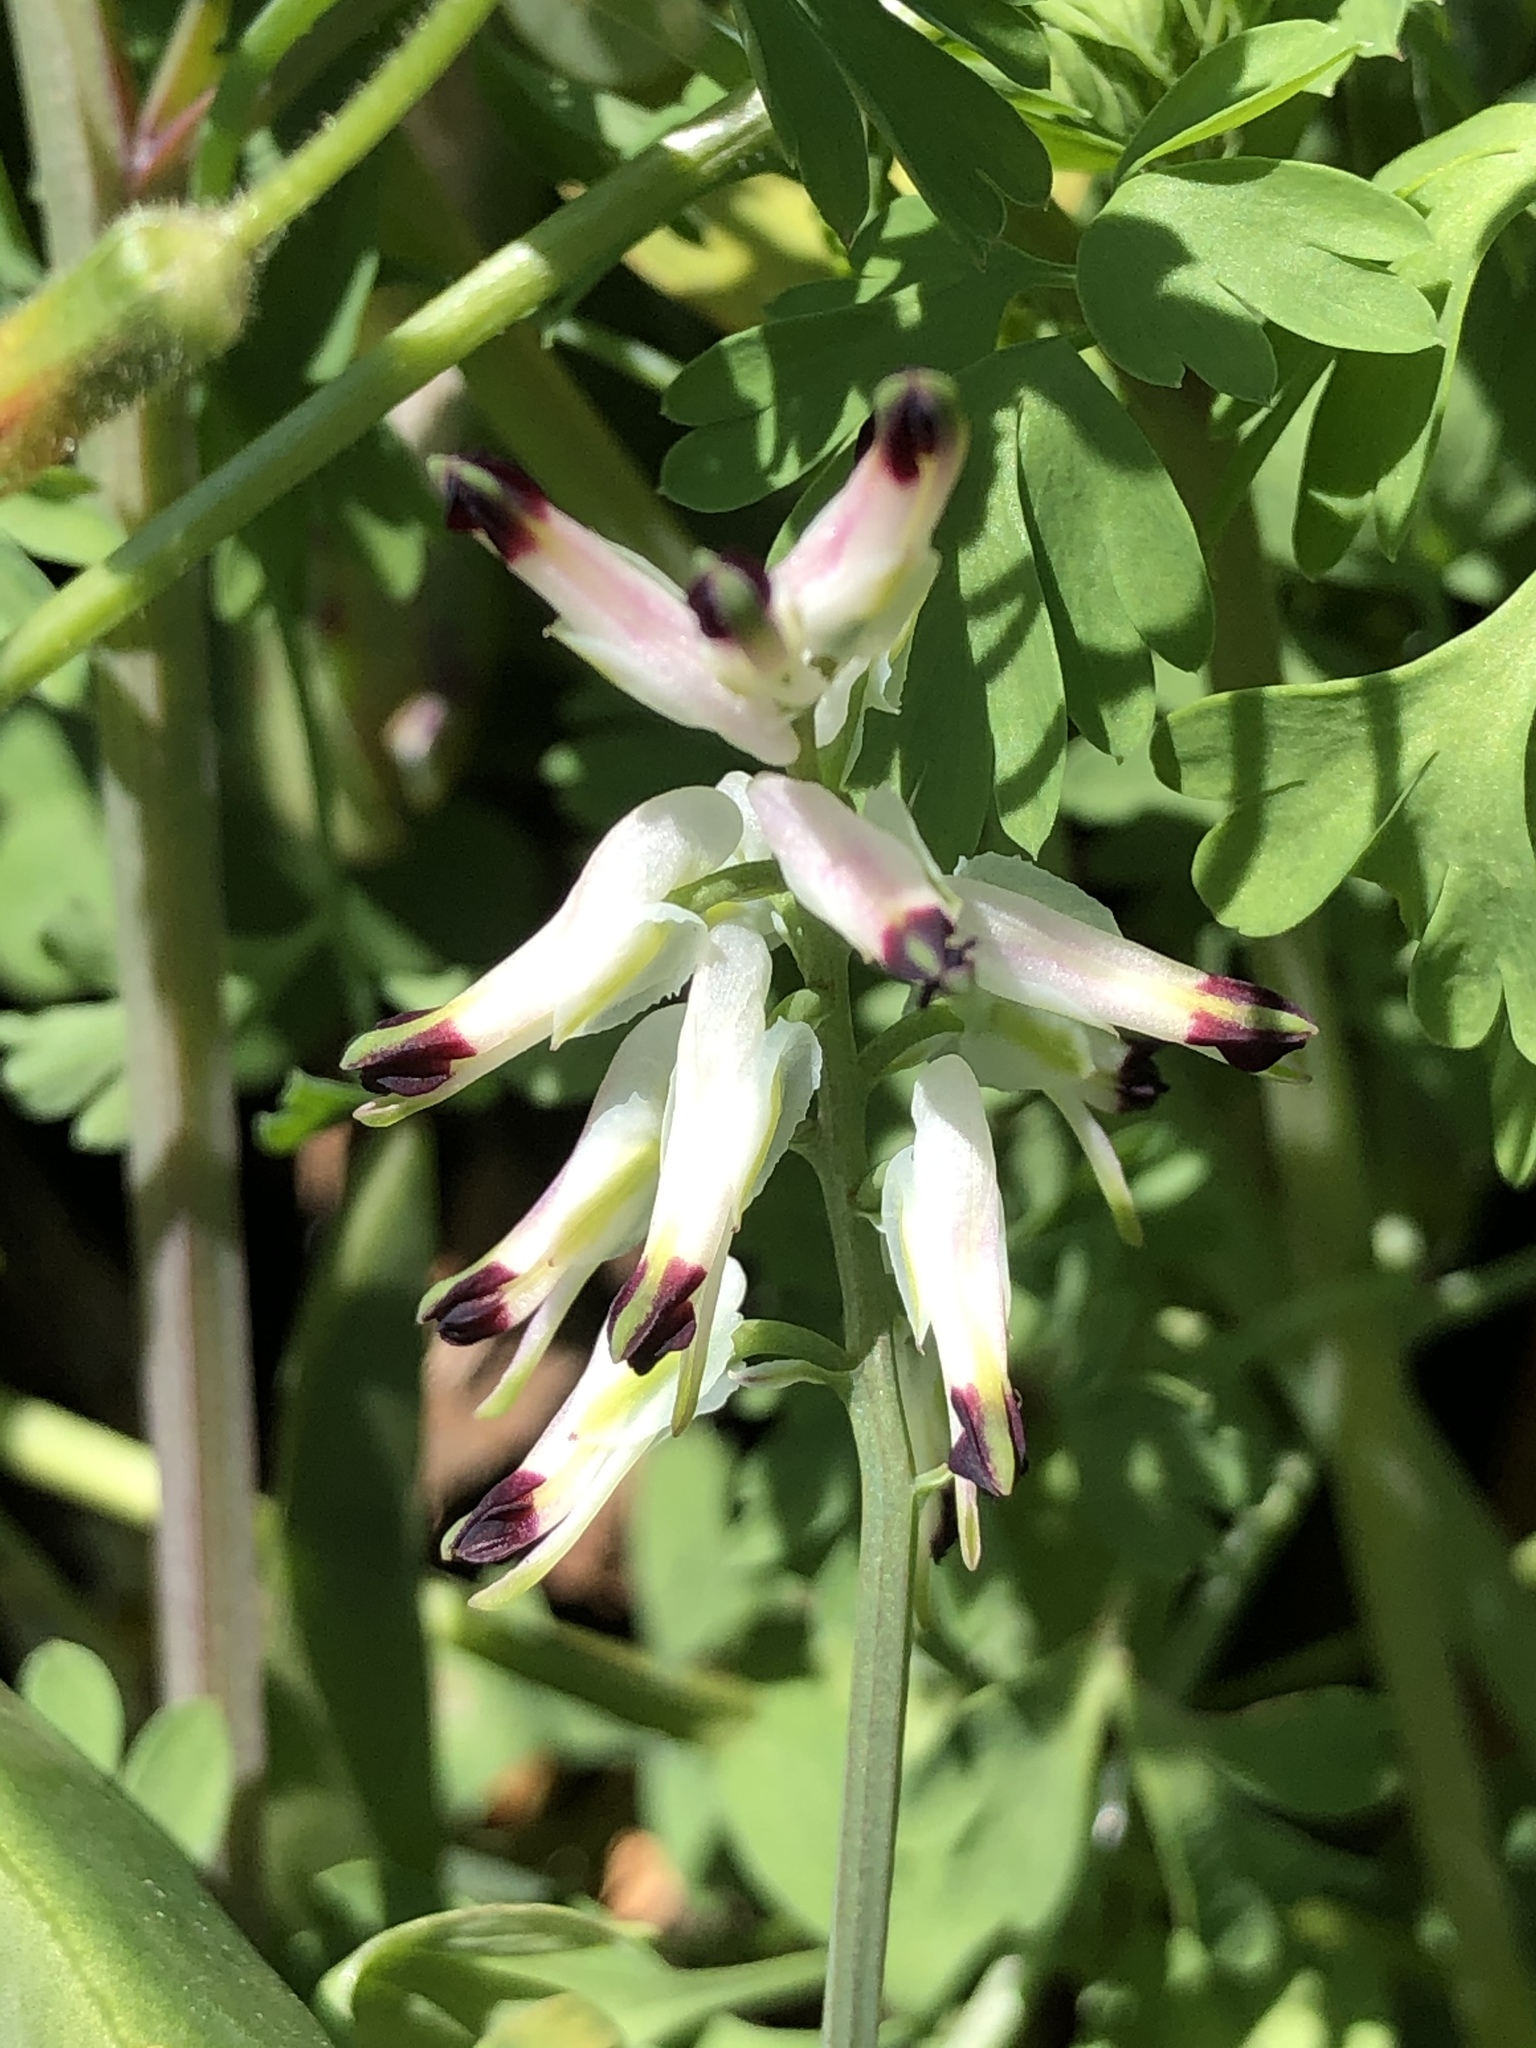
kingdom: Plantae
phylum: Tracheophyta
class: Magnoliopsida
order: Ranunculales
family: Papaveraceae
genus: Fumaria
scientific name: Fumaria capreolata
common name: White ramping-fumitory
